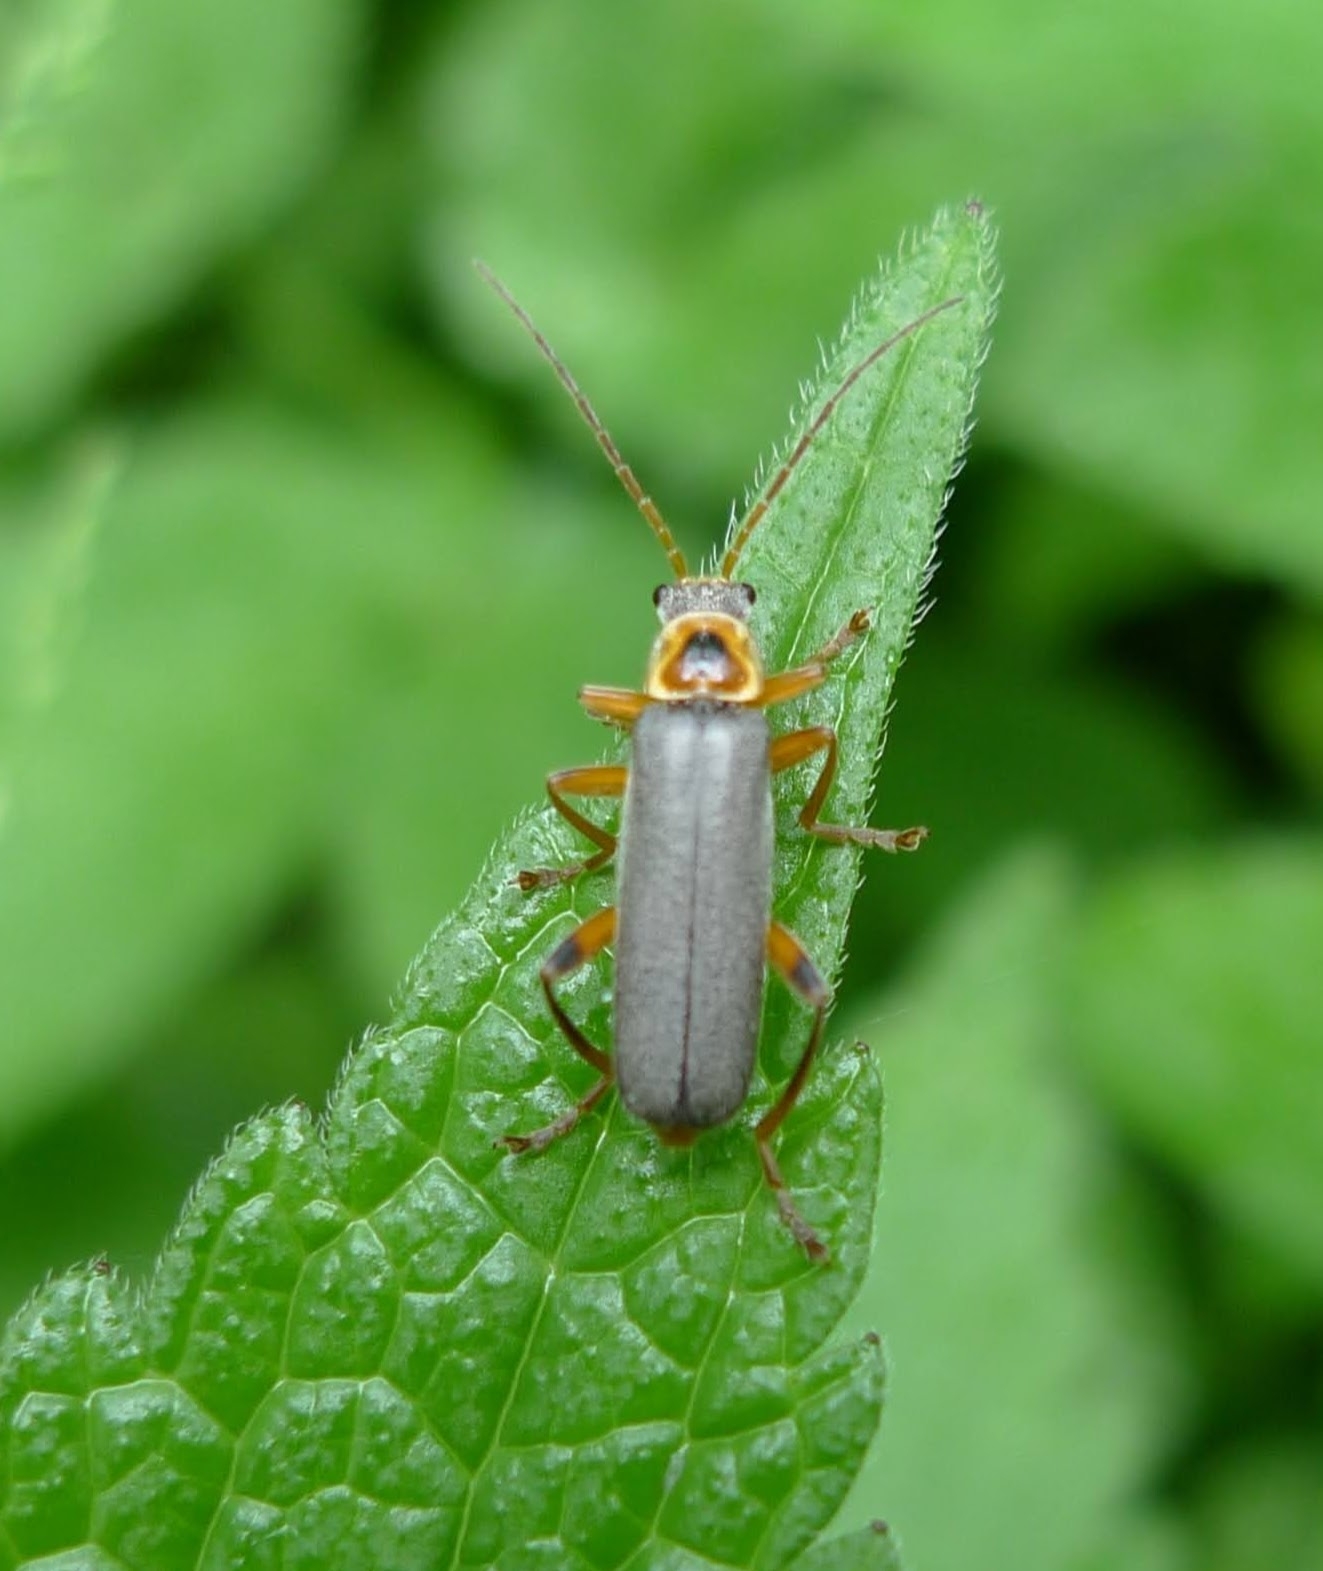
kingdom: Animalia
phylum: Arthropoda
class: Insecta
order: Coleoptera
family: Cantharidae
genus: Cantharis
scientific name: Cantharis nigricans
